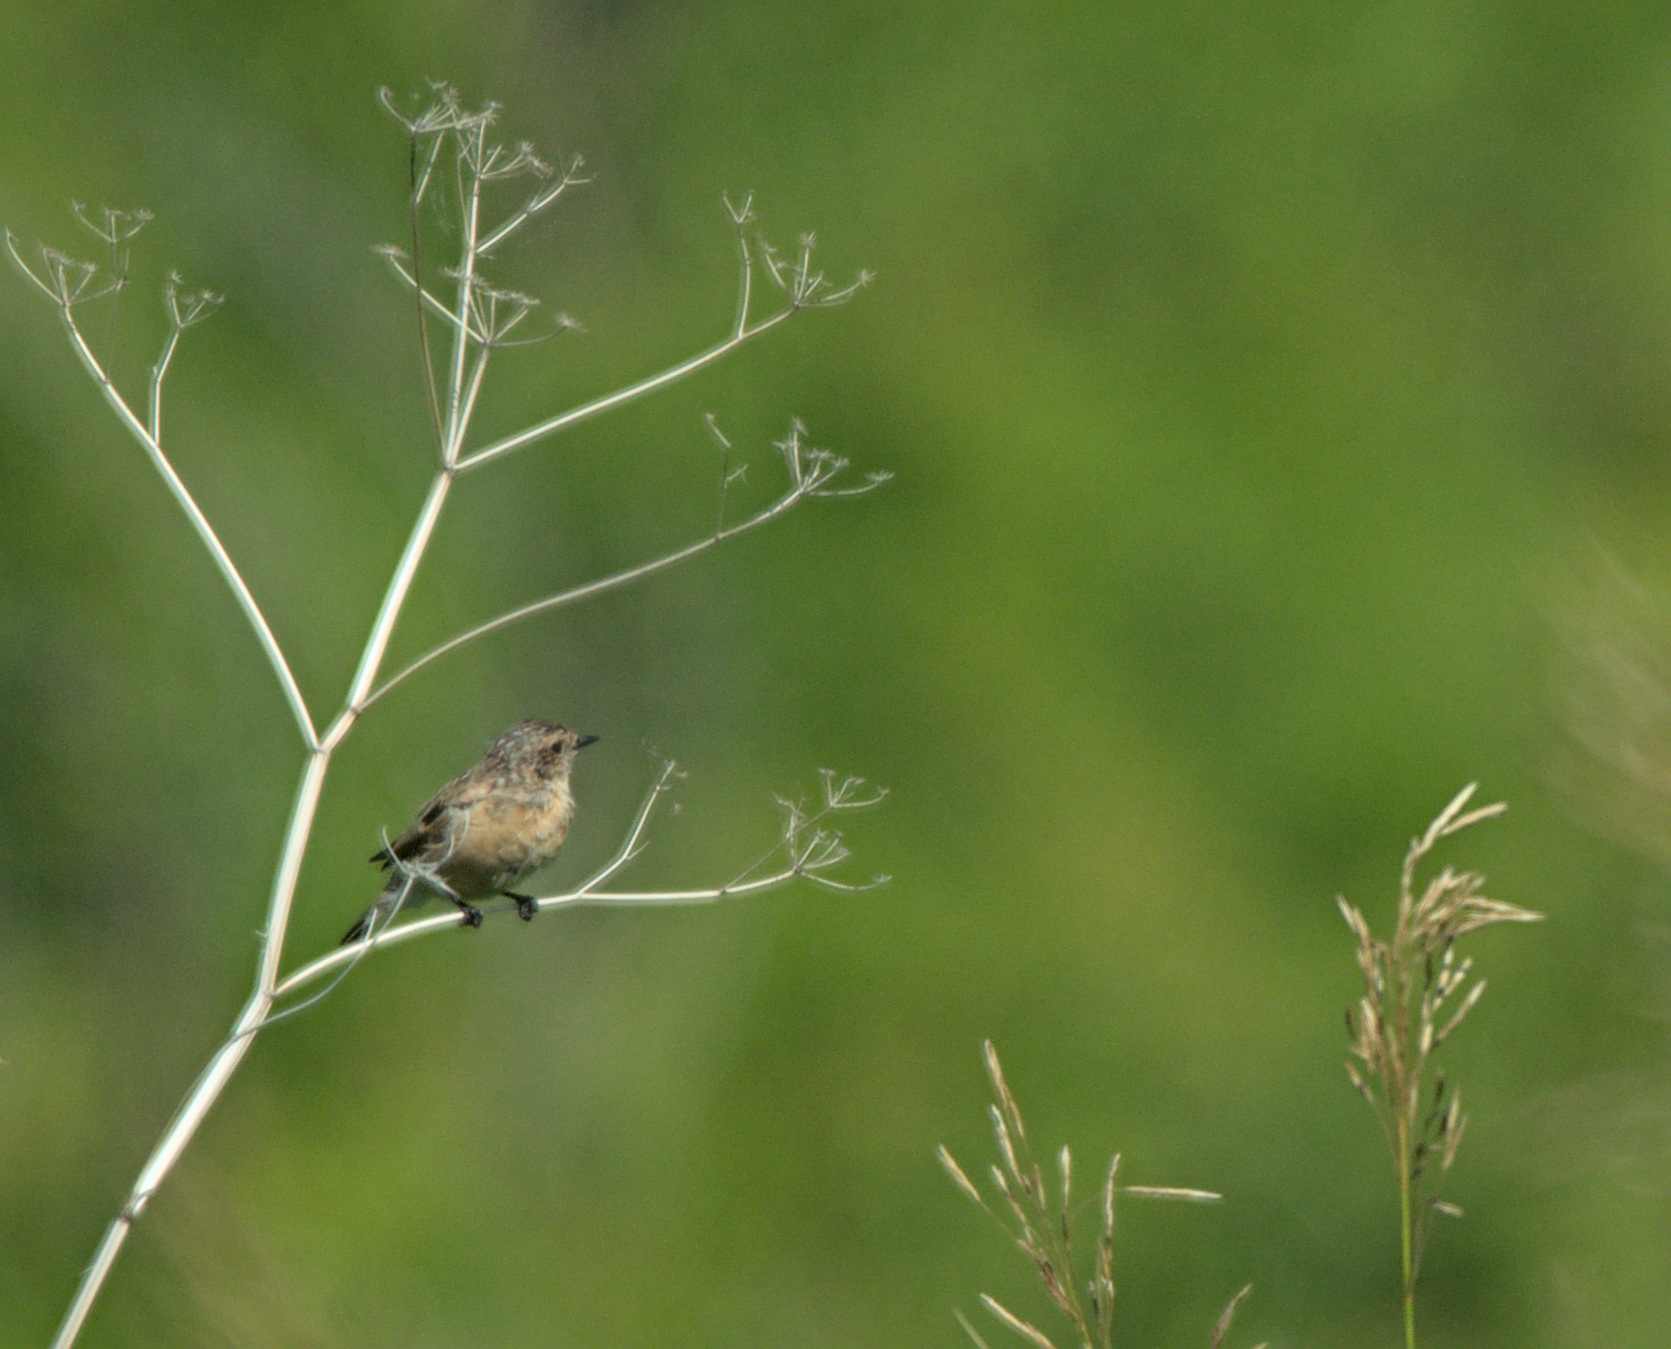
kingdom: Animalia
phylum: Chordata
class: Aves
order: Passeriformes
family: Muscicapidae
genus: Saxicola
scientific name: Saxicola maurus
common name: Siberian stonechat
